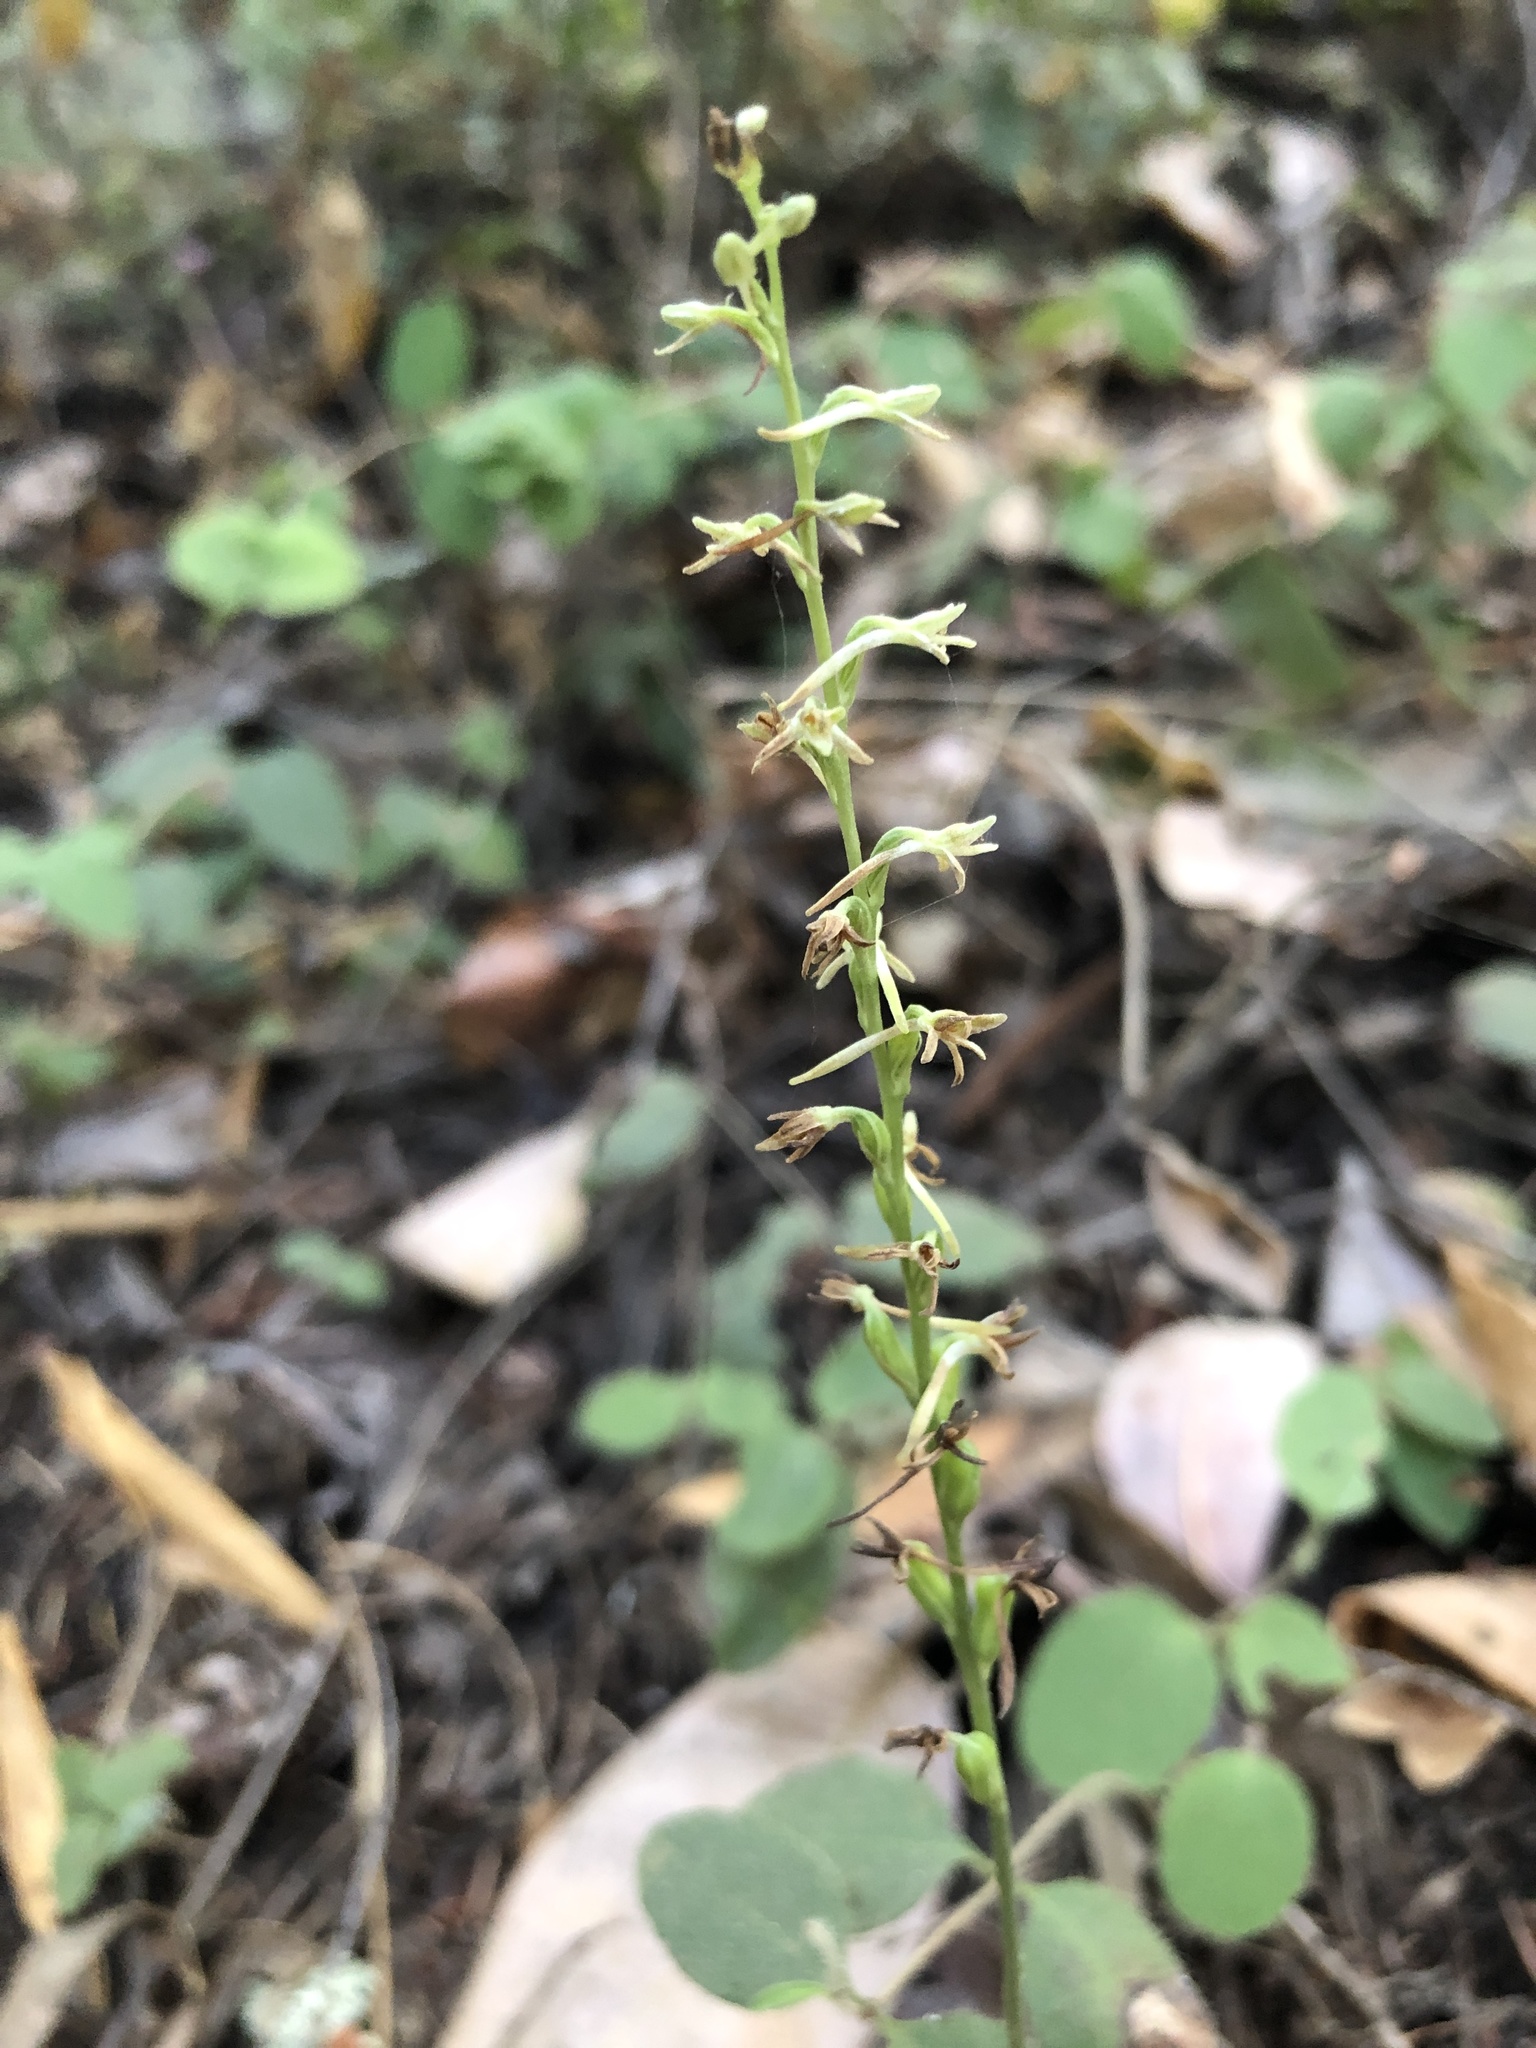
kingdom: Plantae
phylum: Tracheophyta
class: Liliopsida
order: Asparagales
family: Orchidaceae
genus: Platanthera
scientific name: Platanthera transversa
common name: Royal rein orchid
